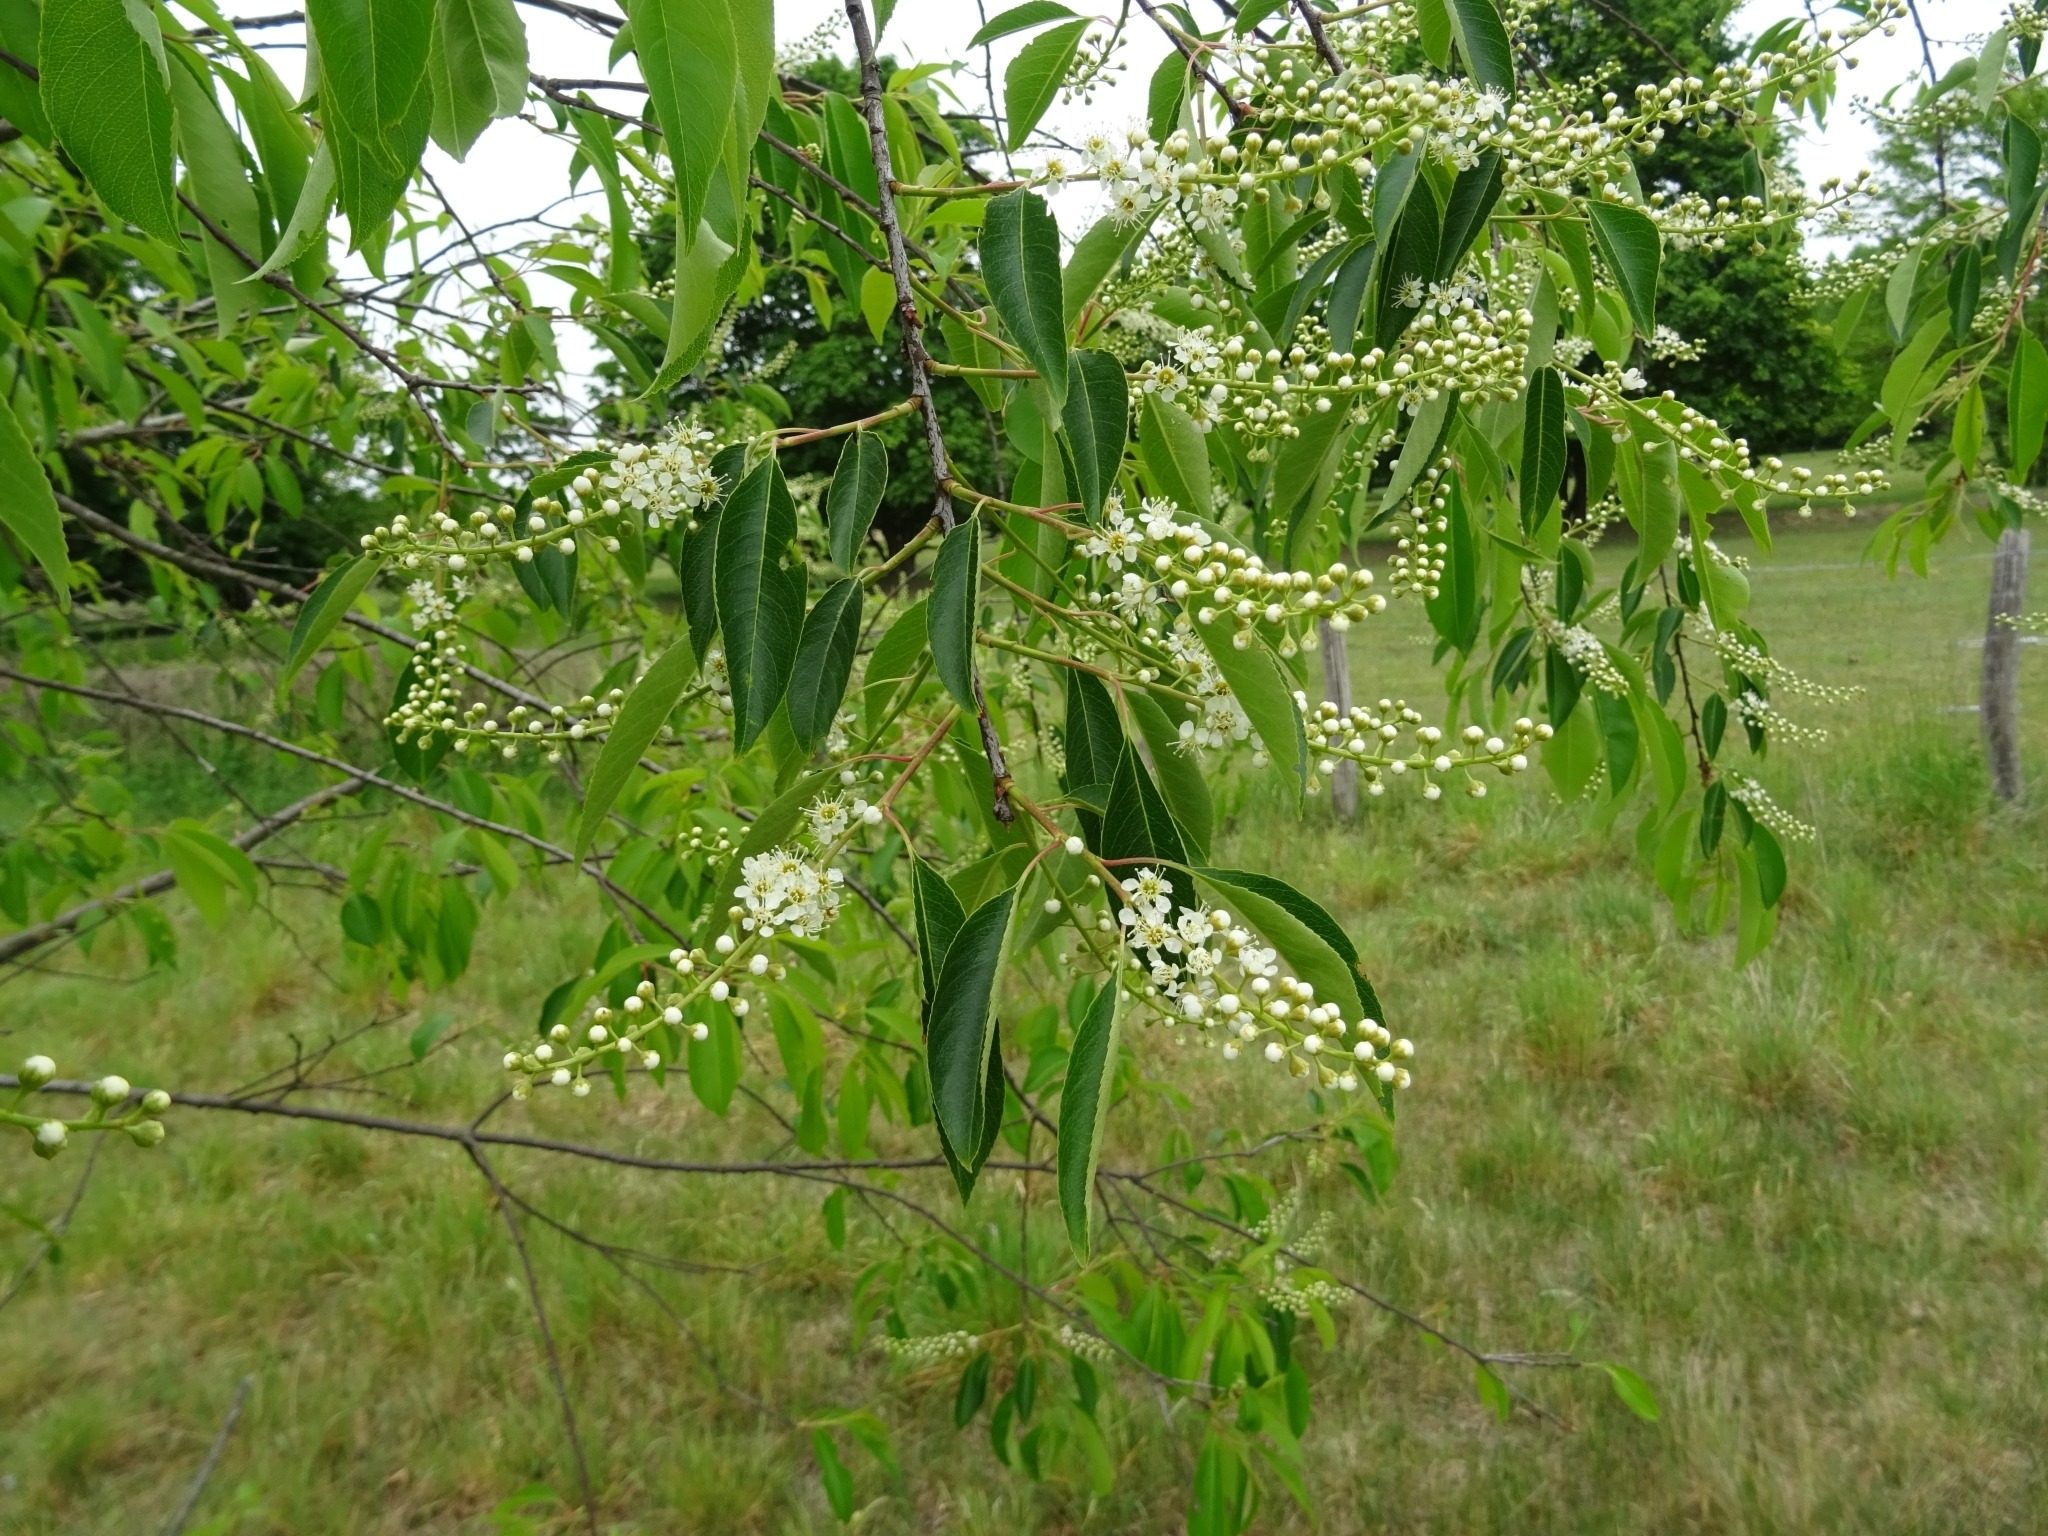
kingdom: Plantae
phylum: Tracheophyta
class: Magnoliopsida
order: Rosales
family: Rosaceae
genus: Prunus
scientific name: Prunus padus
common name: Bird cherry
